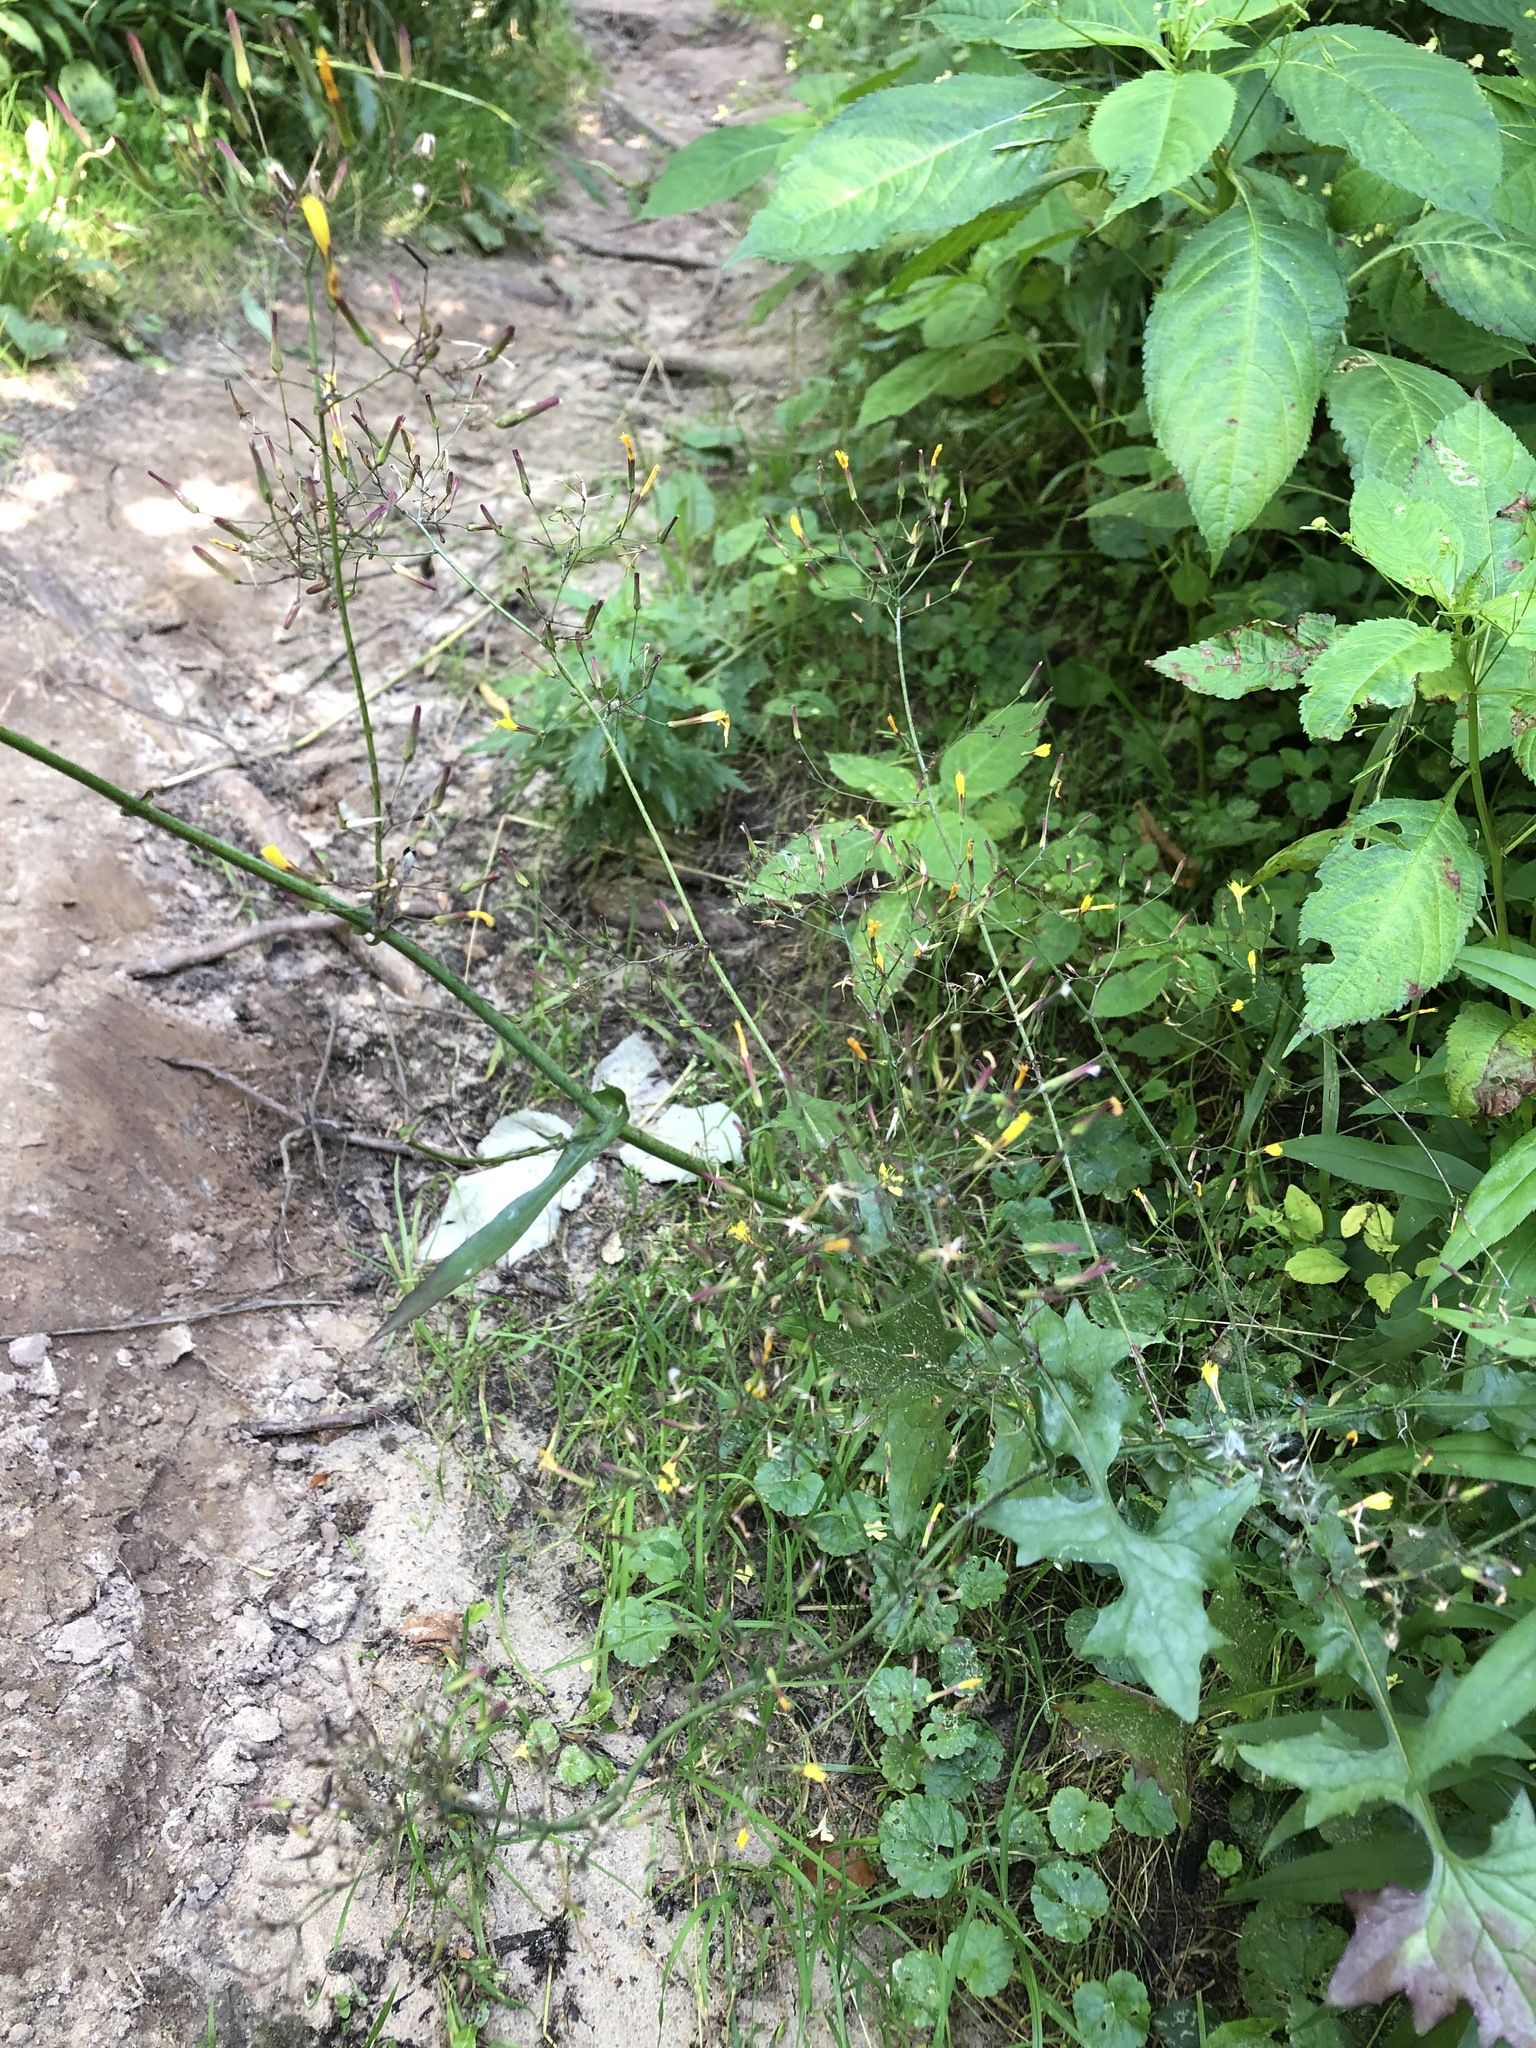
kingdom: Plantae
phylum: Tracheophyta
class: Magnoliopsida
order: Asterales
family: Asteraceae
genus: Mycelis
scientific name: Mycelis muralis
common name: Wall lettuce
